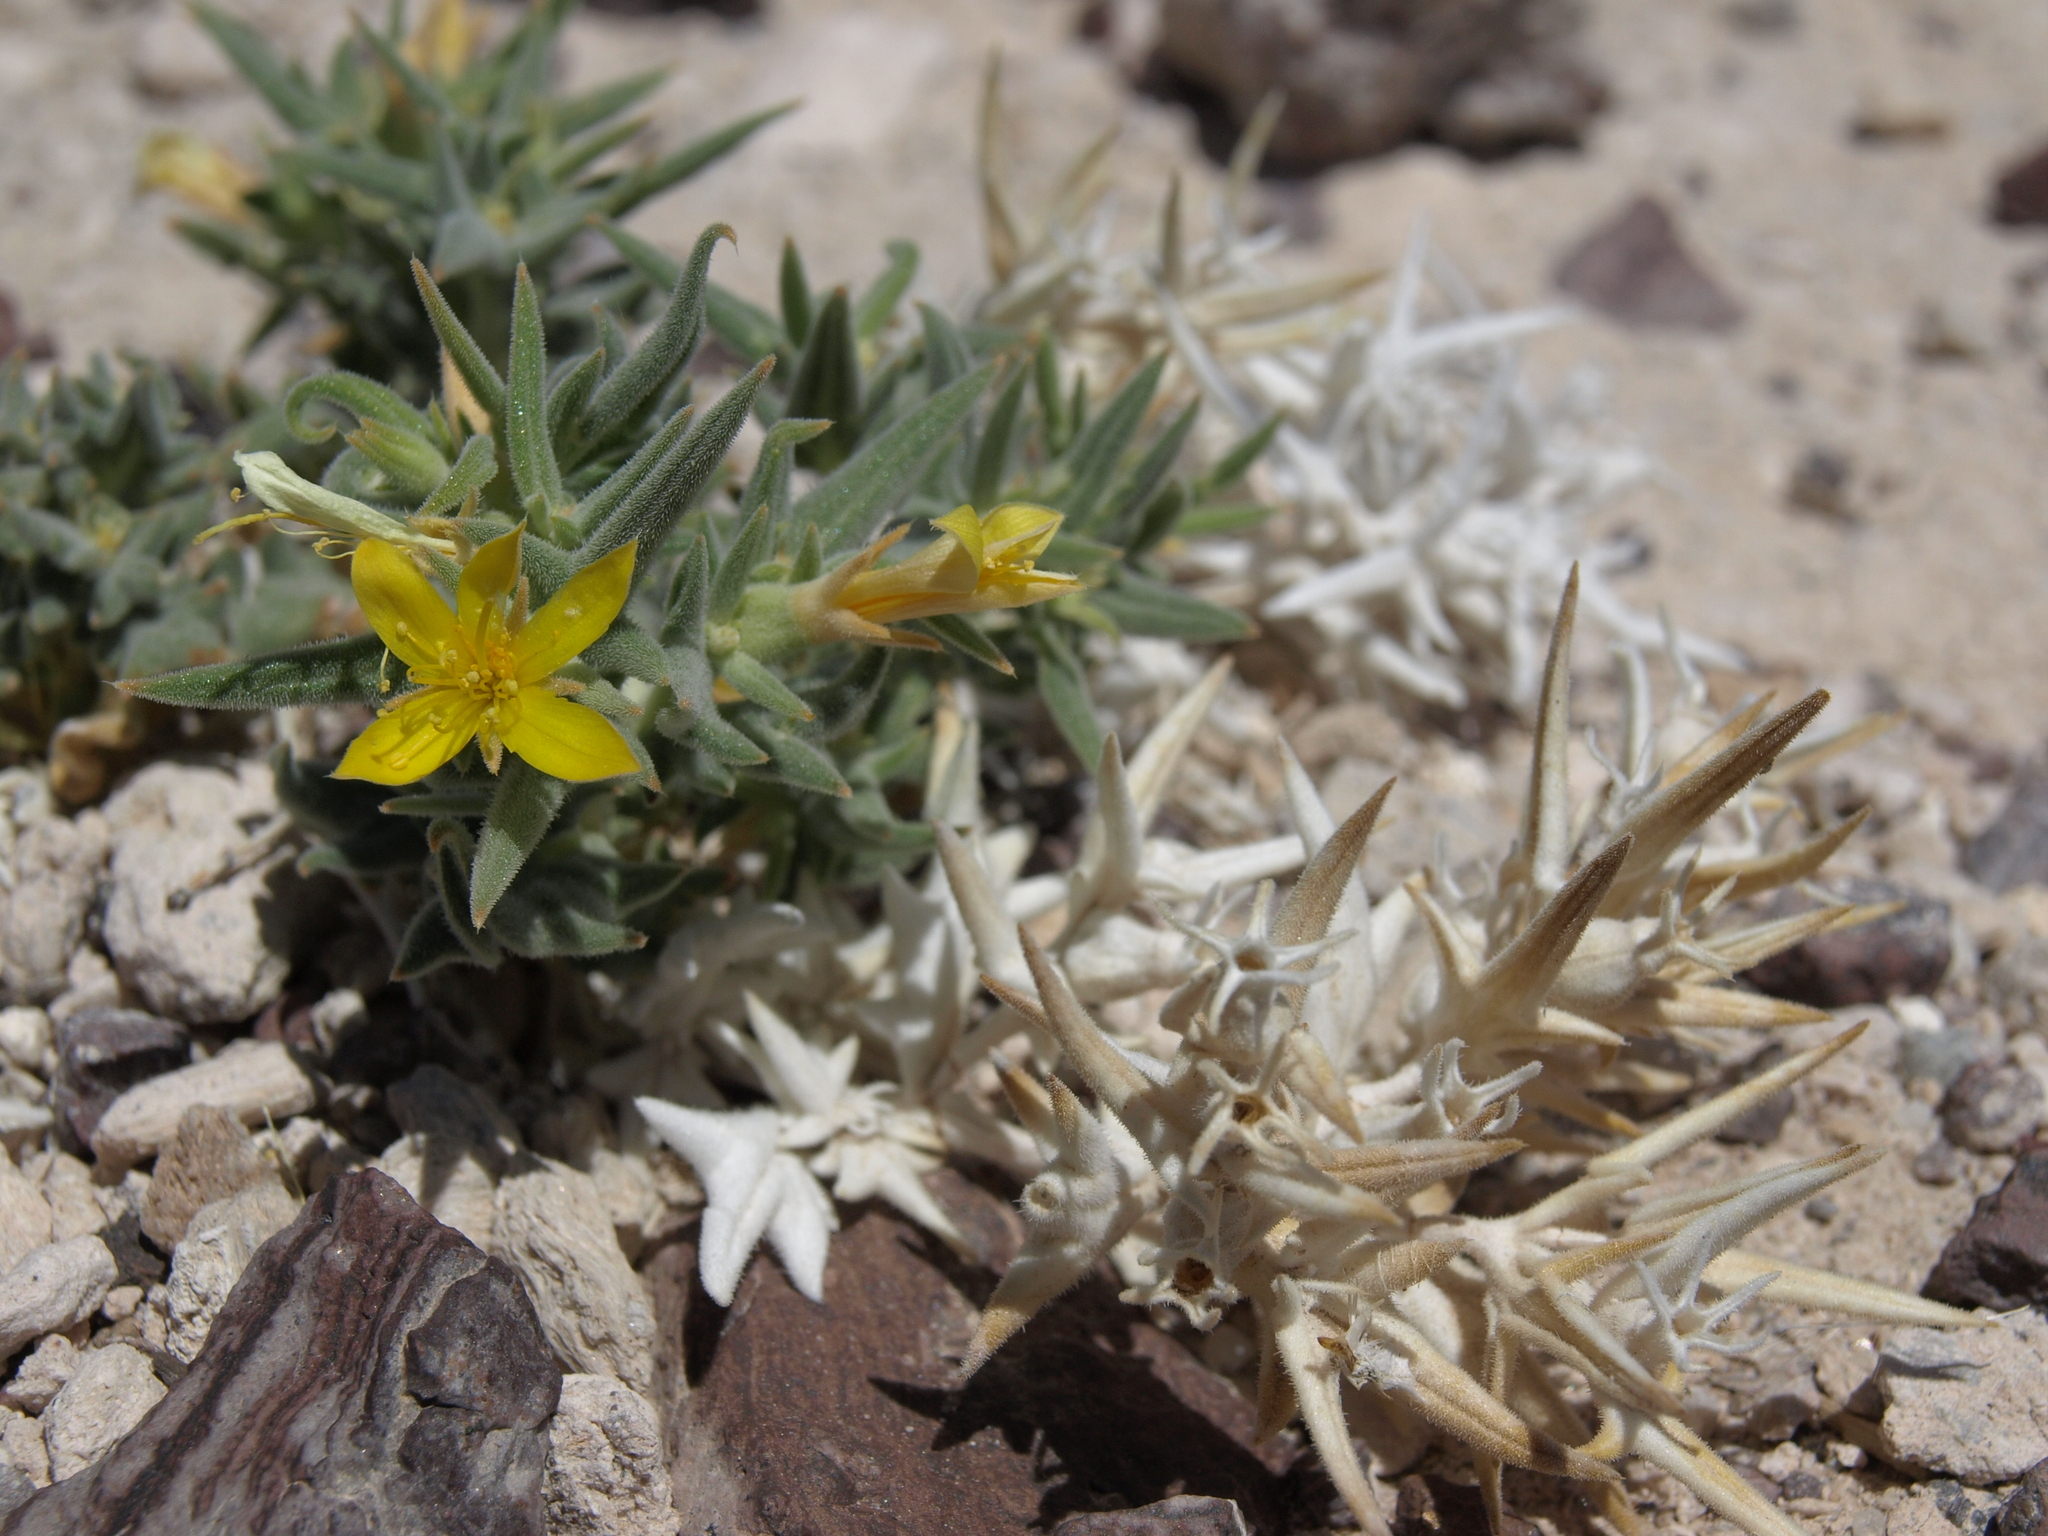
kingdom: Plantae
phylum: Tracheophyta
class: Magnoliopsida
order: Cornales
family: Loasaceae
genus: Mentzelia
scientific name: Mentzelia torreyi
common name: Torrey's blazingstar
